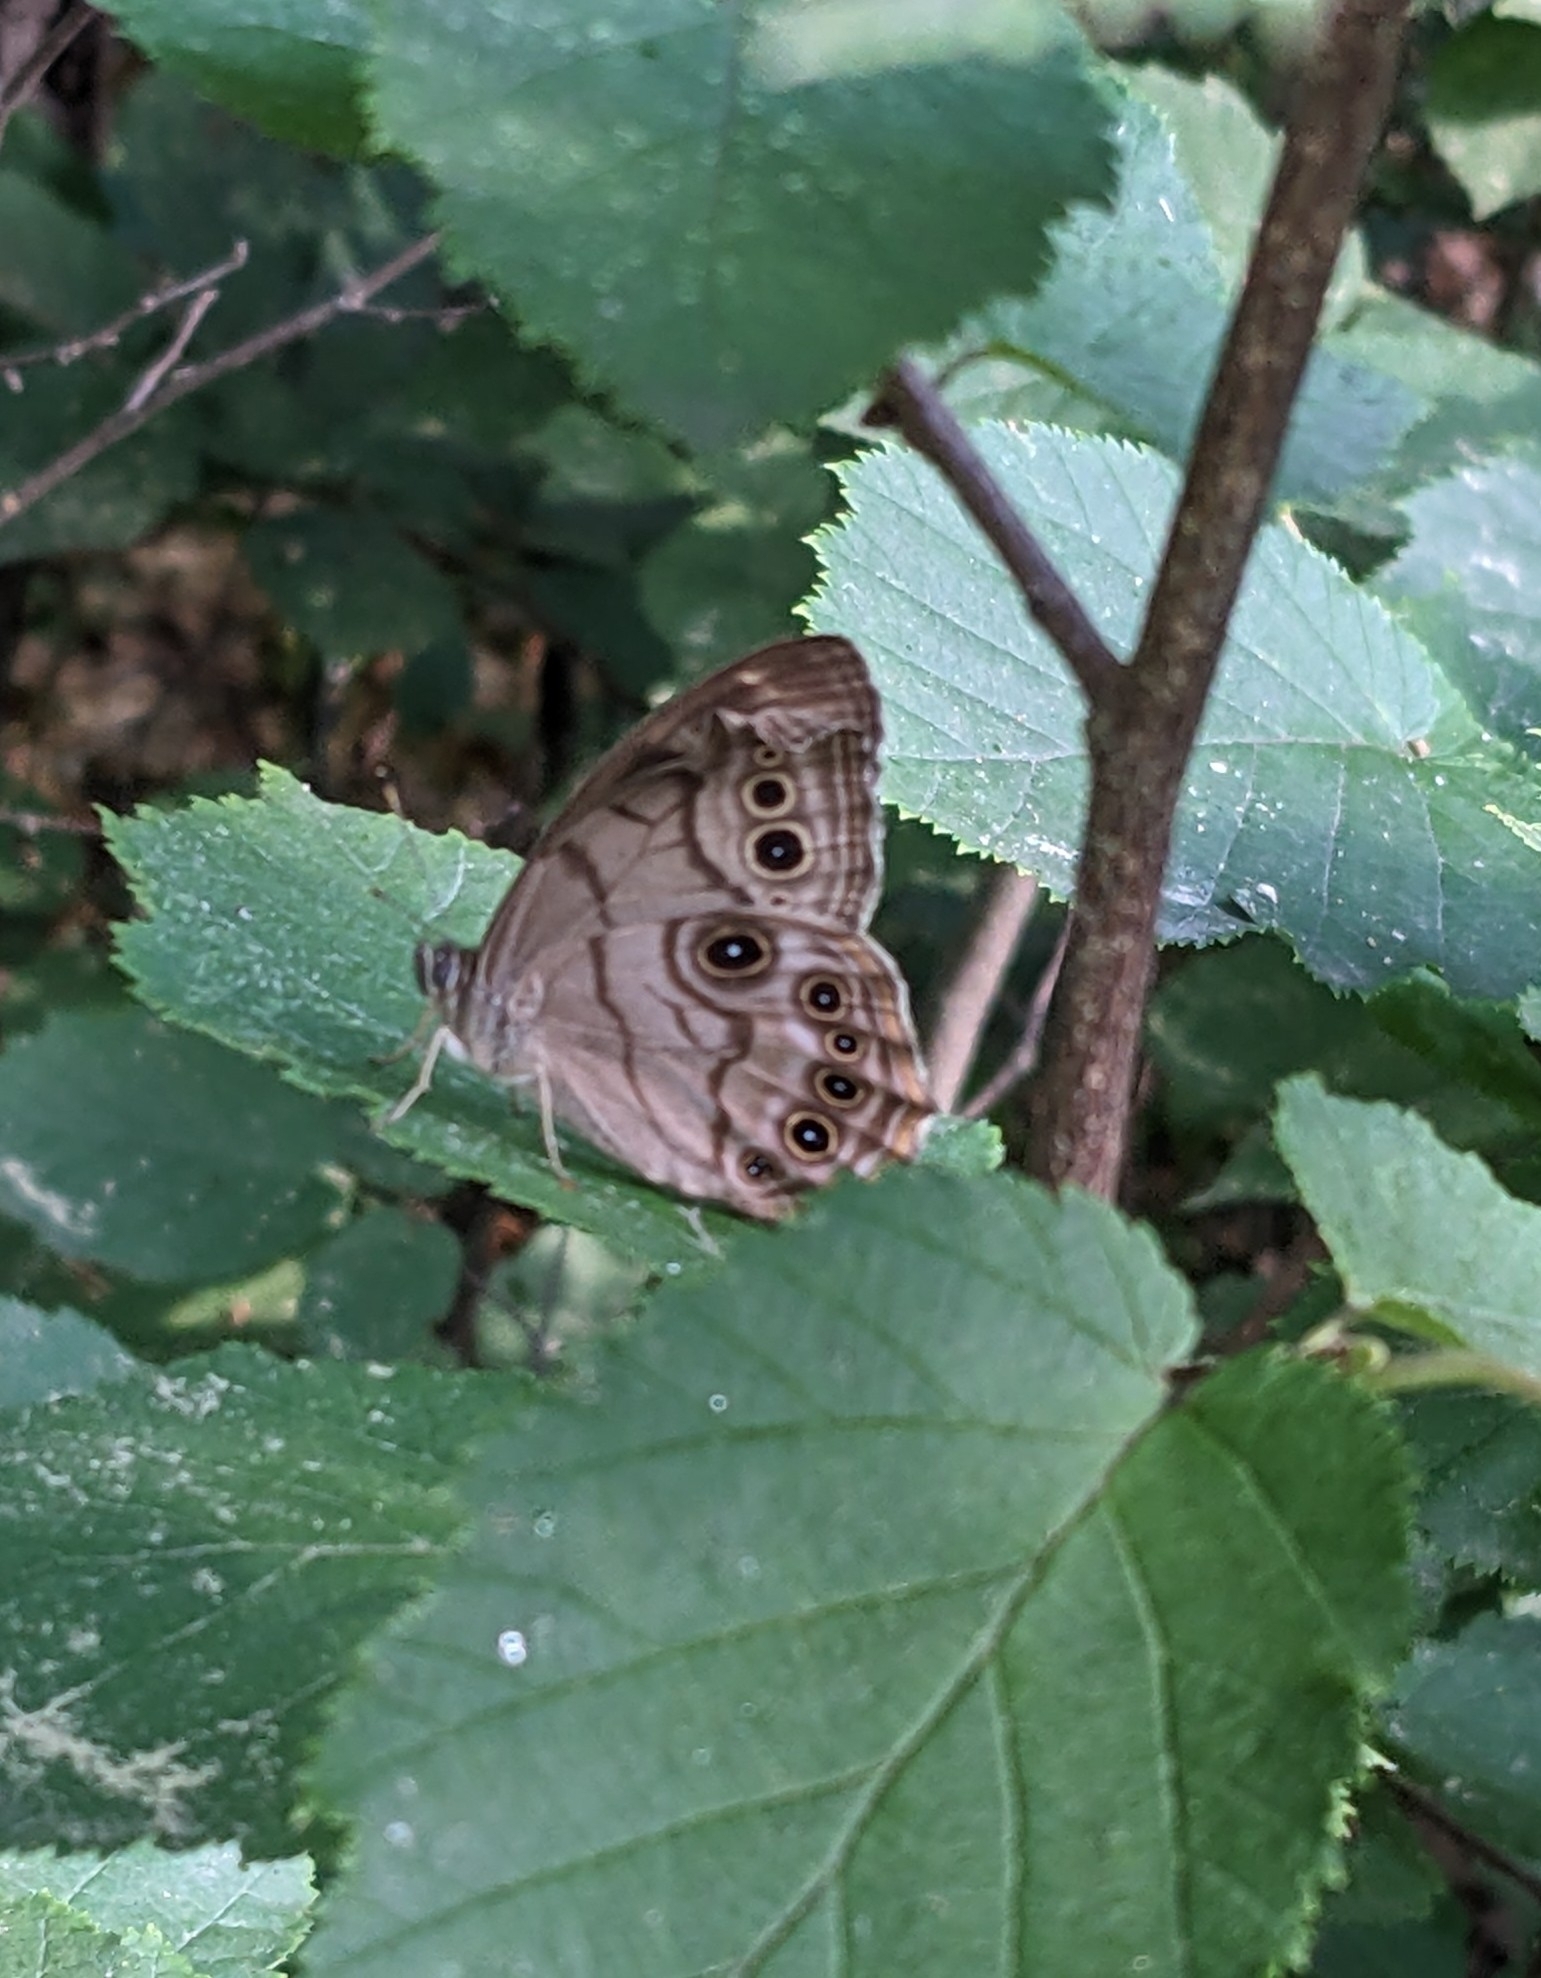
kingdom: Animalia
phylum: Arthropoda
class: Insecta
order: Lepidoptera
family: Nymphalidae
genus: Lethe
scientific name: Lethe anthedon
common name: Northern pearly-eye
